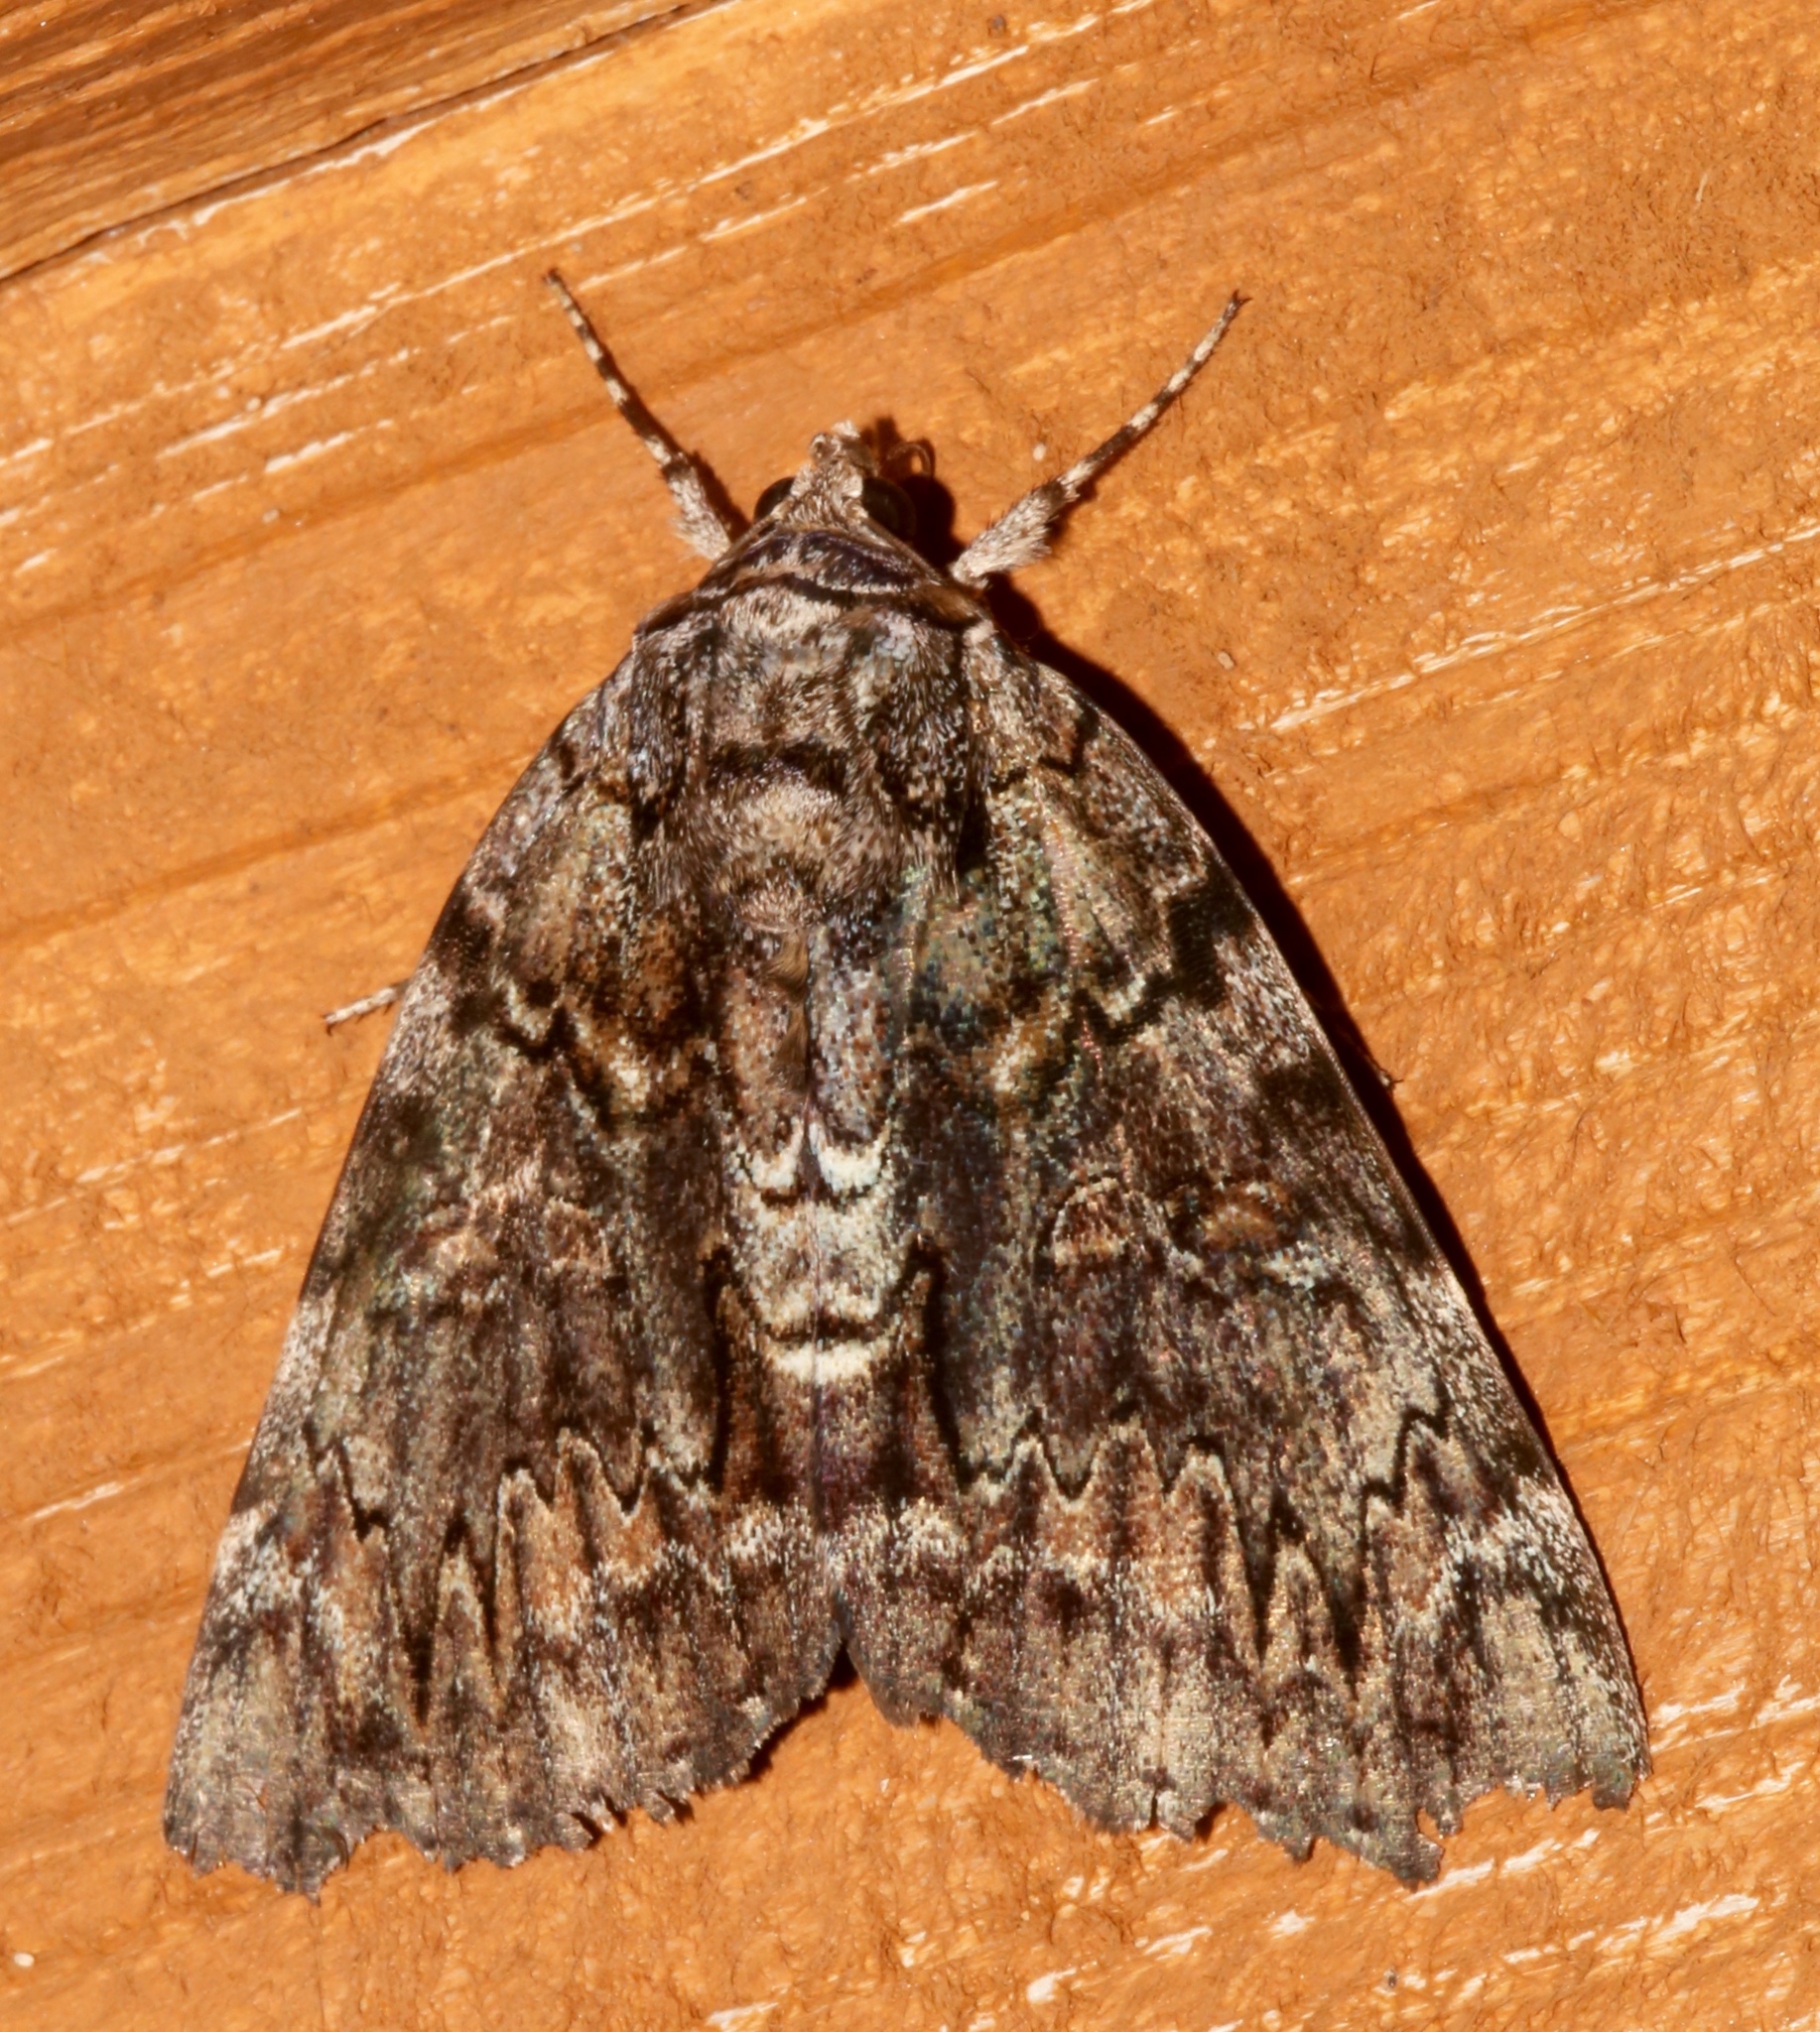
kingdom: Animalia
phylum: Arthropoda
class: Insecta
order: Lepidoptera
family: Erebidae
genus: Catocala
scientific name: Catocala lacrymosa
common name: Tearful underwing
